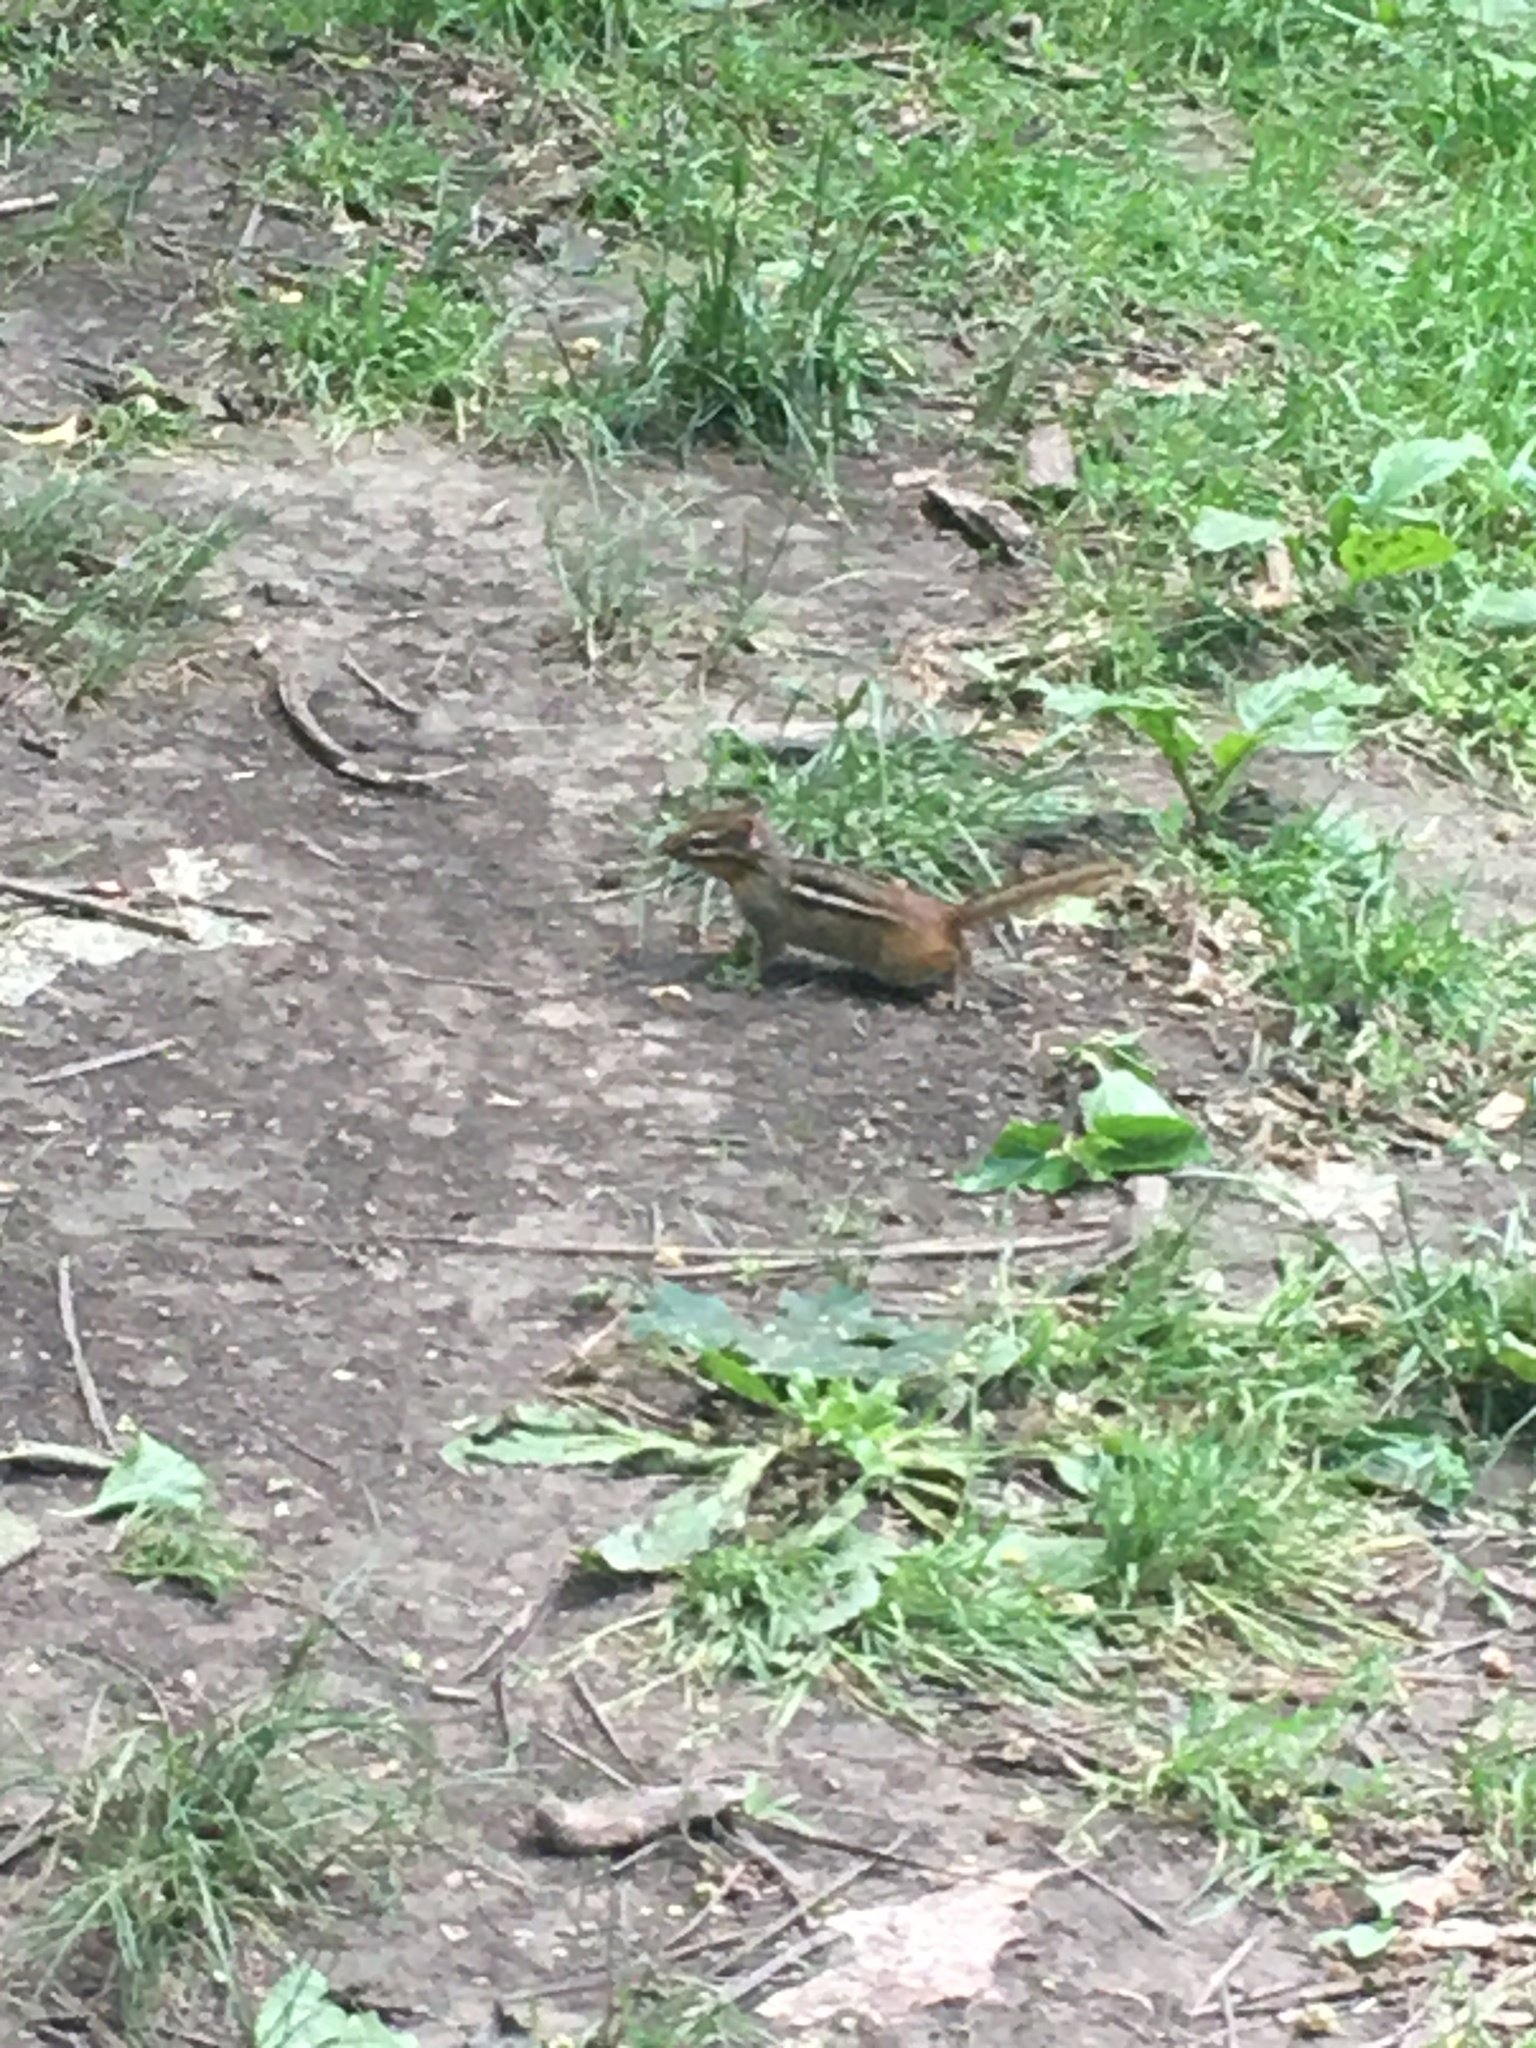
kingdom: Animalia
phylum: Chordata
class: Mammalia
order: Rodentia
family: Sciuridae
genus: Tamias
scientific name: Tamias striatus
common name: Eastern chipmunk
